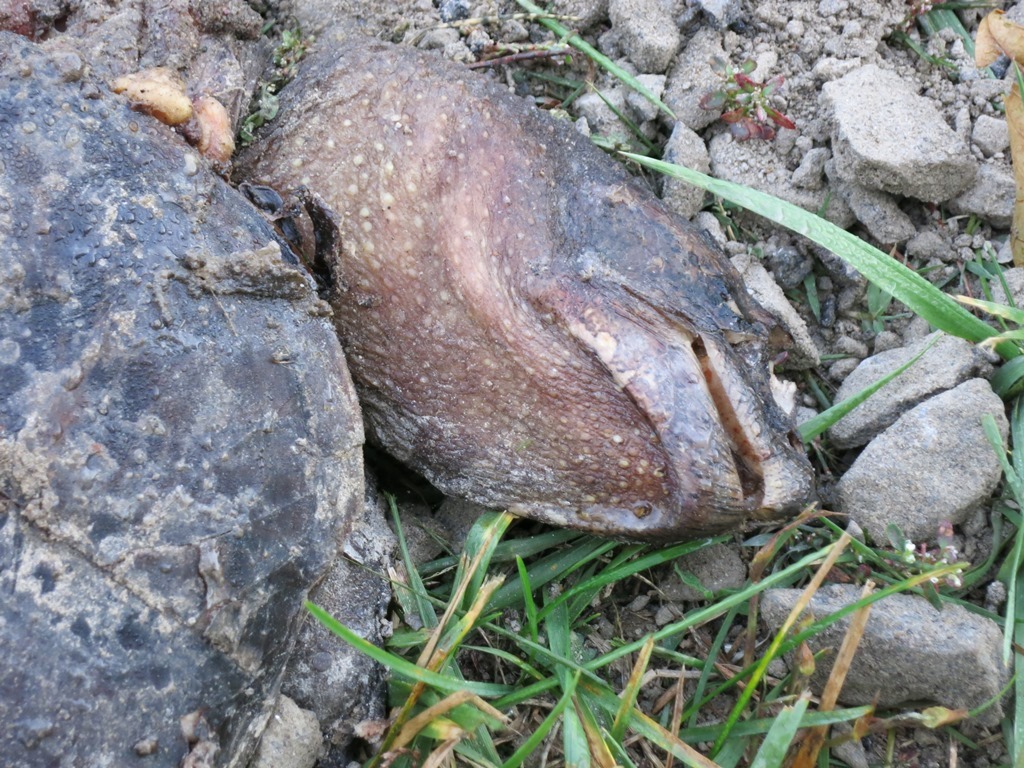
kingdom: Animalia
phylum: Chordata
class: Testudines
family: Chelydridae
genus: Chelydra
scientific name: Chelydra serpentina
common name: Common snapping turtle
